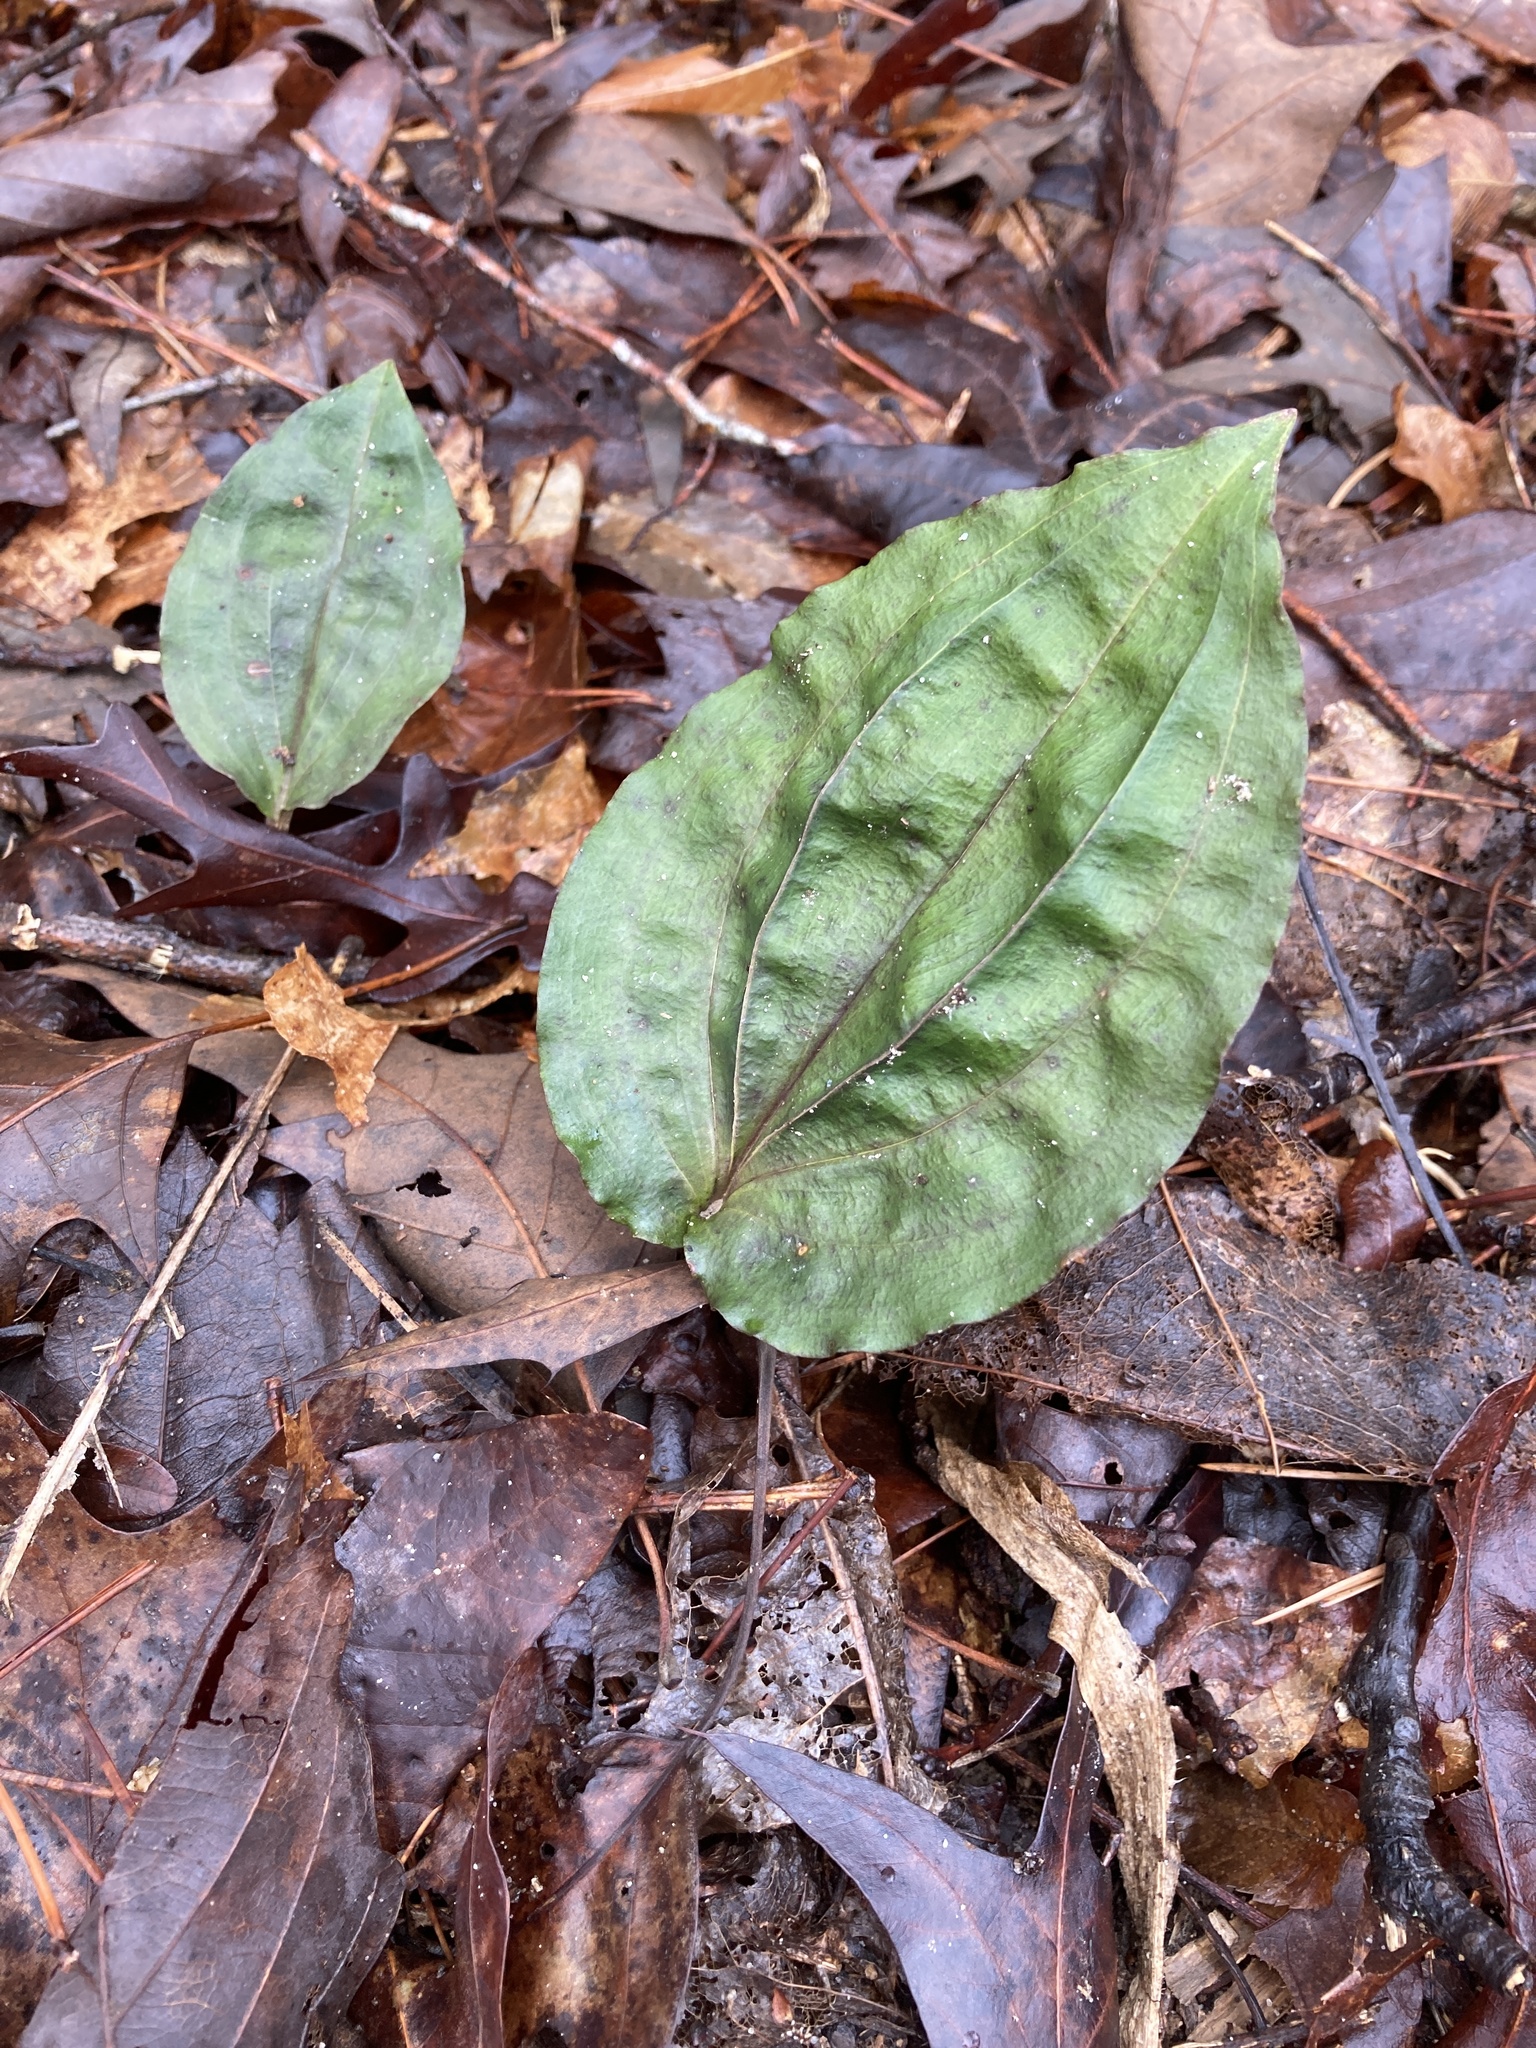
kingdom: Plantae
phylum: Tracheophyta
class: Liliopsida
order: Asparagales
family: Orchidaceae
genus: Tipularia
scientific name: Tipularia discolor
